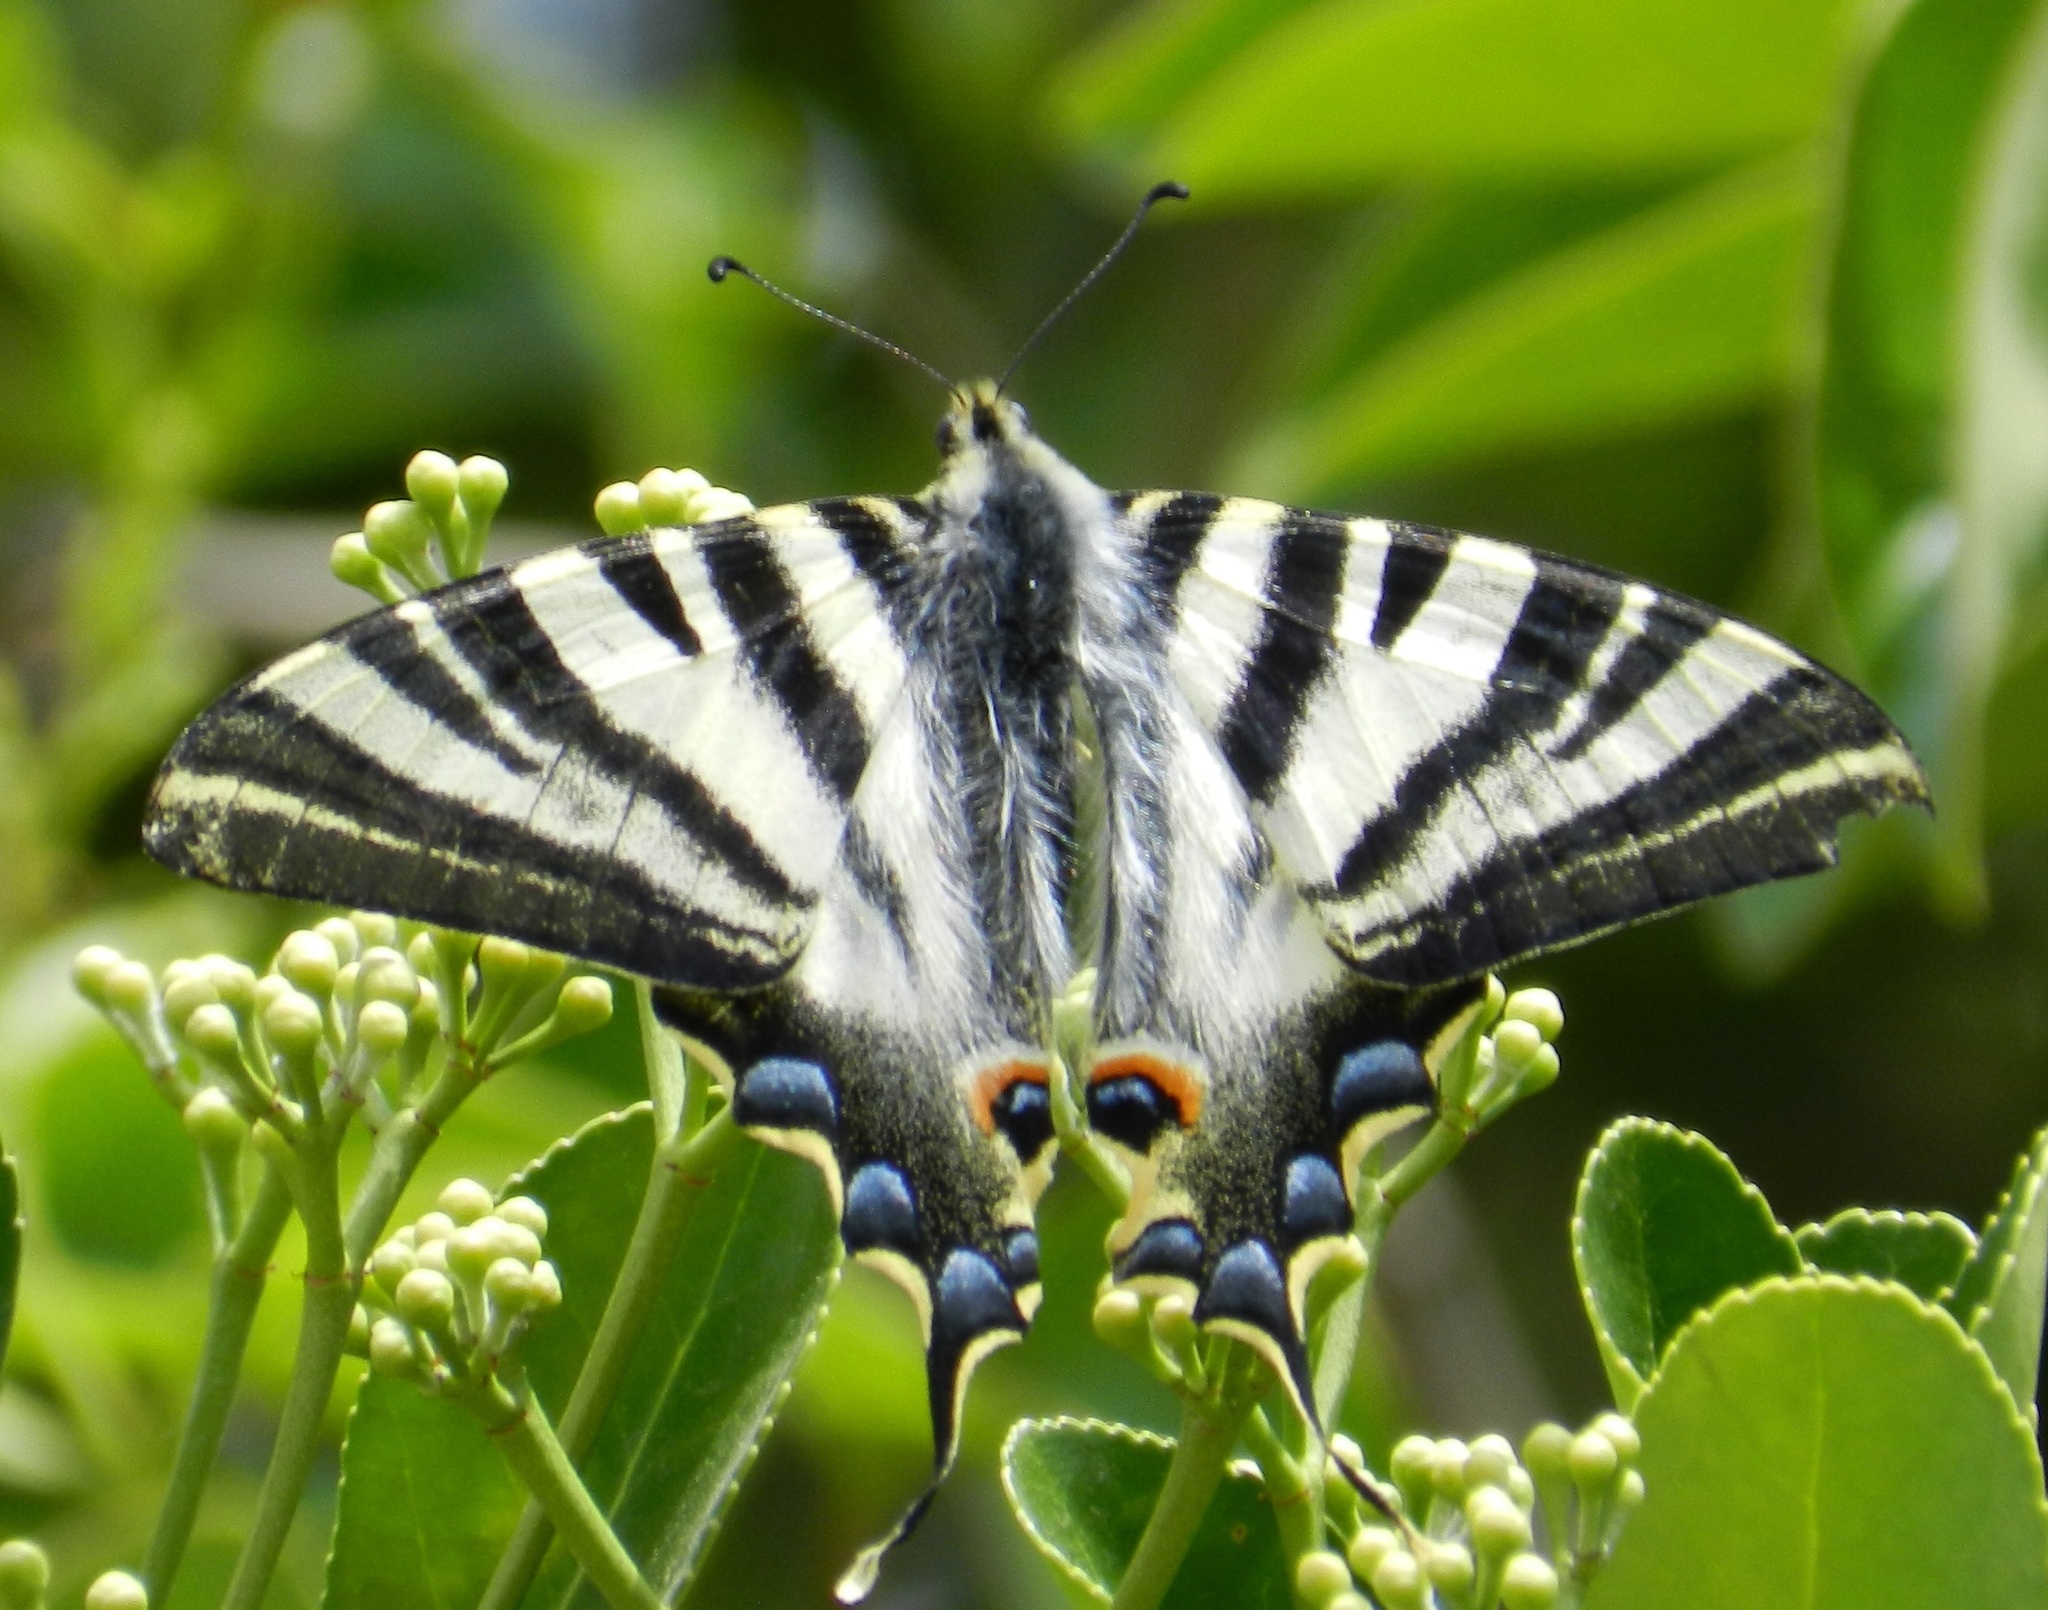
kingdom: Animalia
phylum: Arthropoda
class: Insecta
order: Lepidoptera
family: Papilionidae
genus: Iphiclides
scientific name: Iphiclides feisthamelii
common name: Iberian scarce swallowtail
